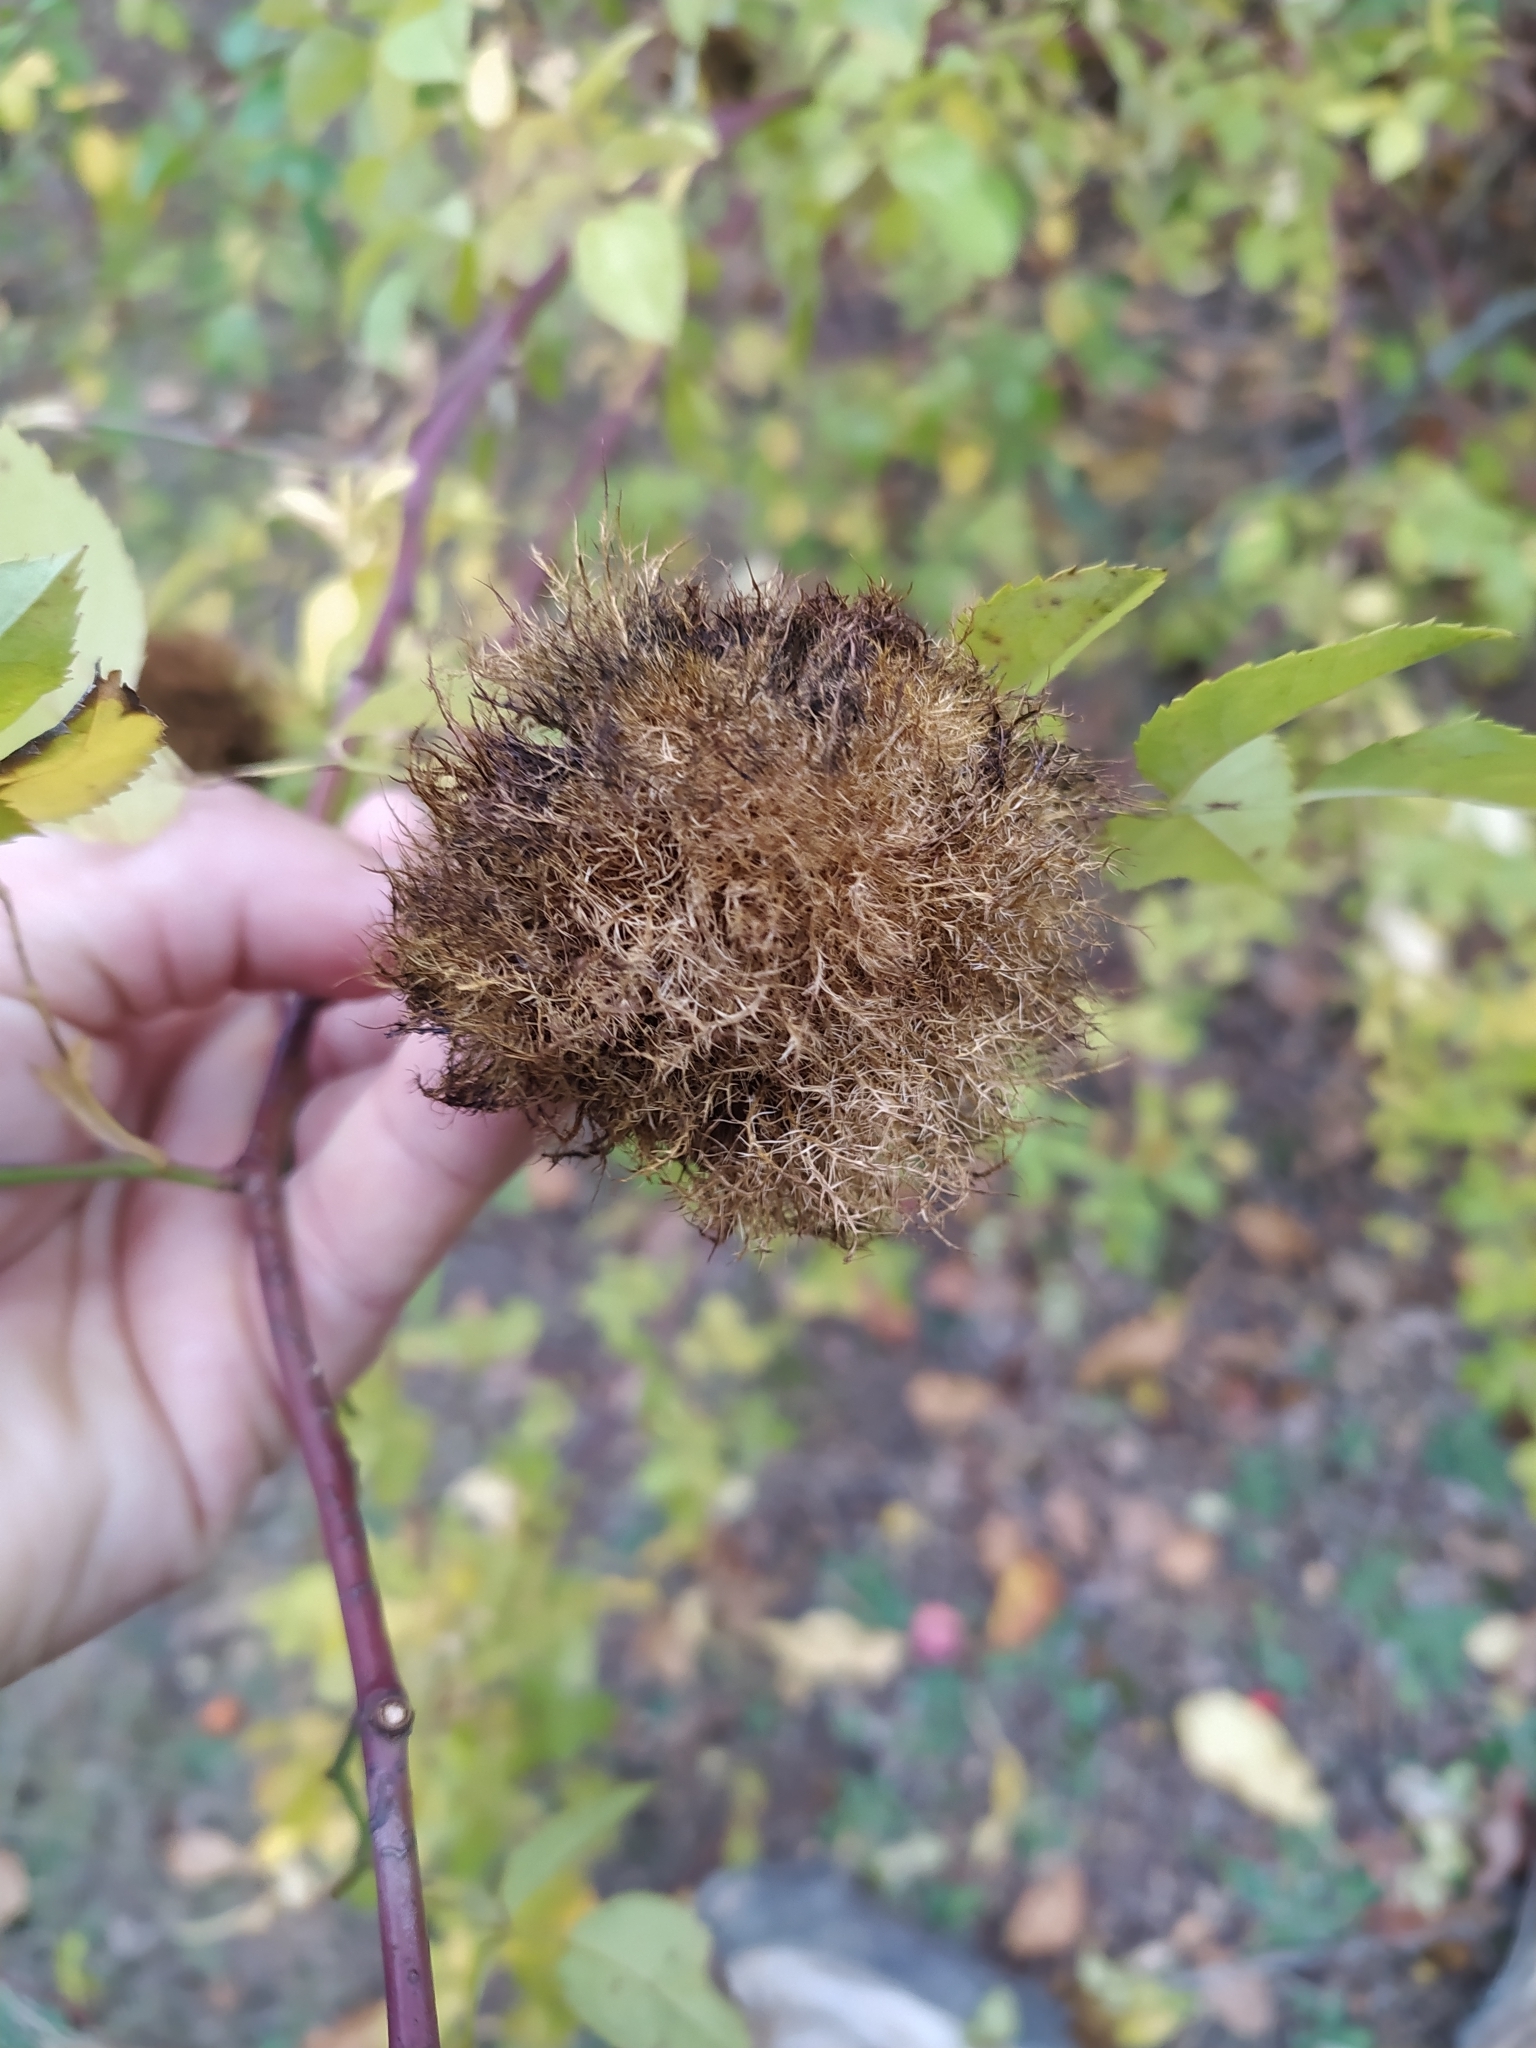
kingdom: Animalia
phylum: Arthropoda
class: Insecta
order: Hymenoptera
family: Cynipidae
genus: Diplolepis
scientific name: Diplolepis rosae
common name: Bedeguar gall
